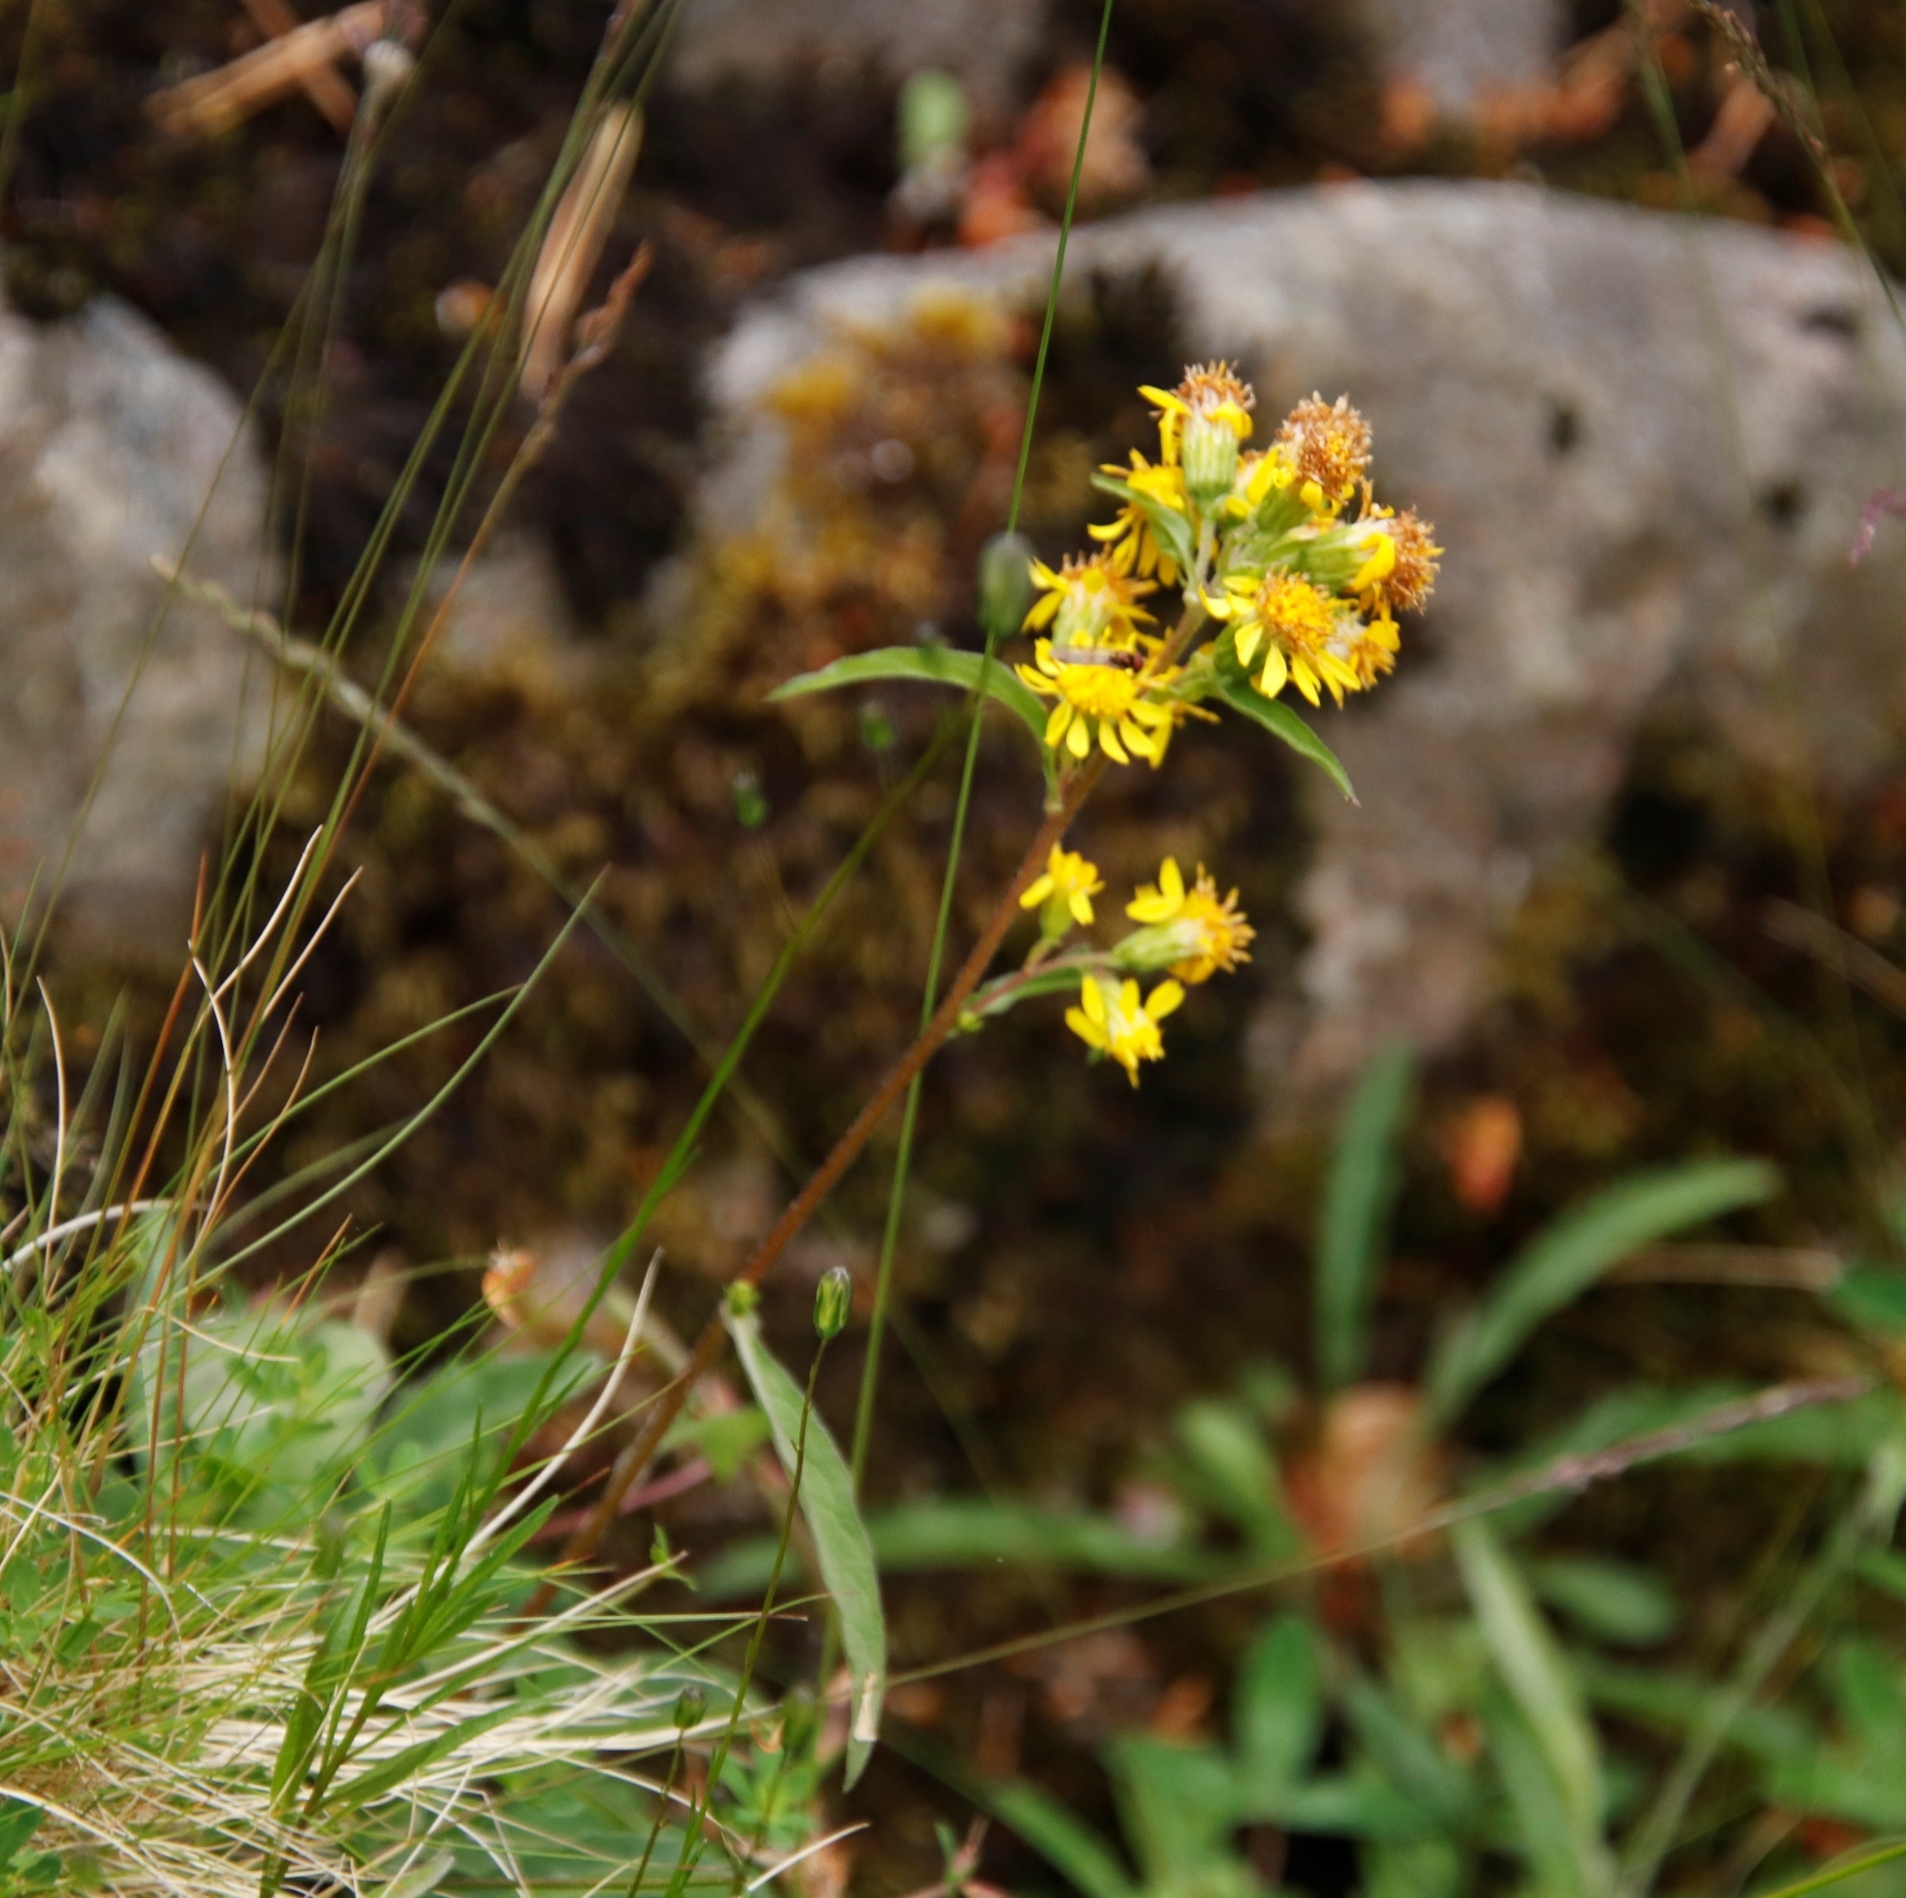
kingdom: Plantae
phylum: Tracheophyta
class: Magnoliopsida
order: Asterales
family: Asteraceae
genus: Solidago
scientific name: Solidago virgaurea
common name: Goldenrod
